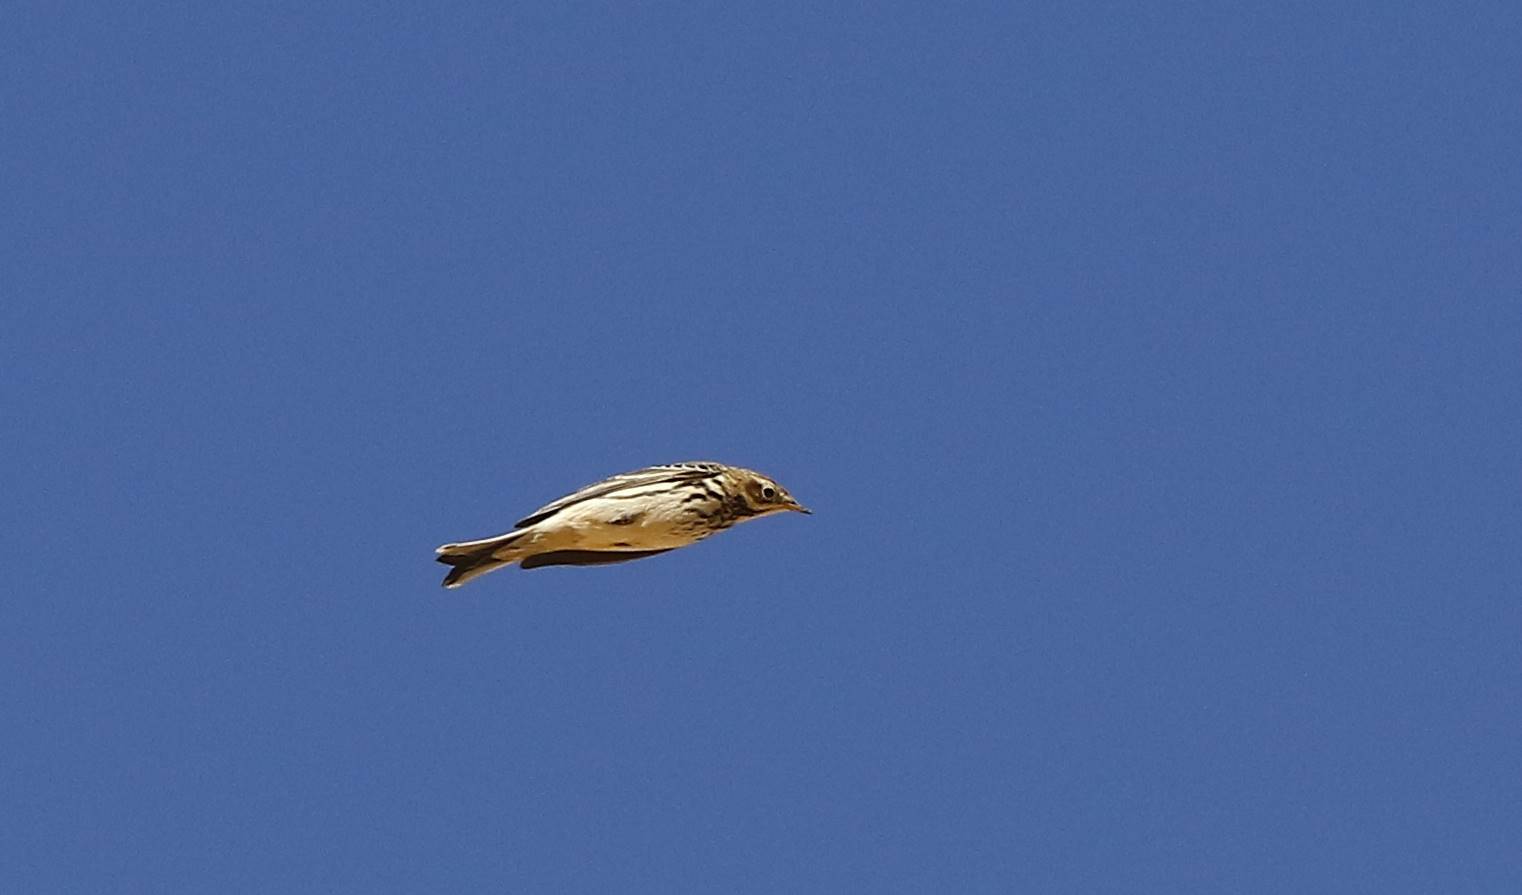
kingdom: Animalia
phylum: Chordata
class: Aves
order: Passeriformes
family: Motacillidae
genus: Anthus
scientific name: Anthus cervinus
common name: Red-throated pipit
